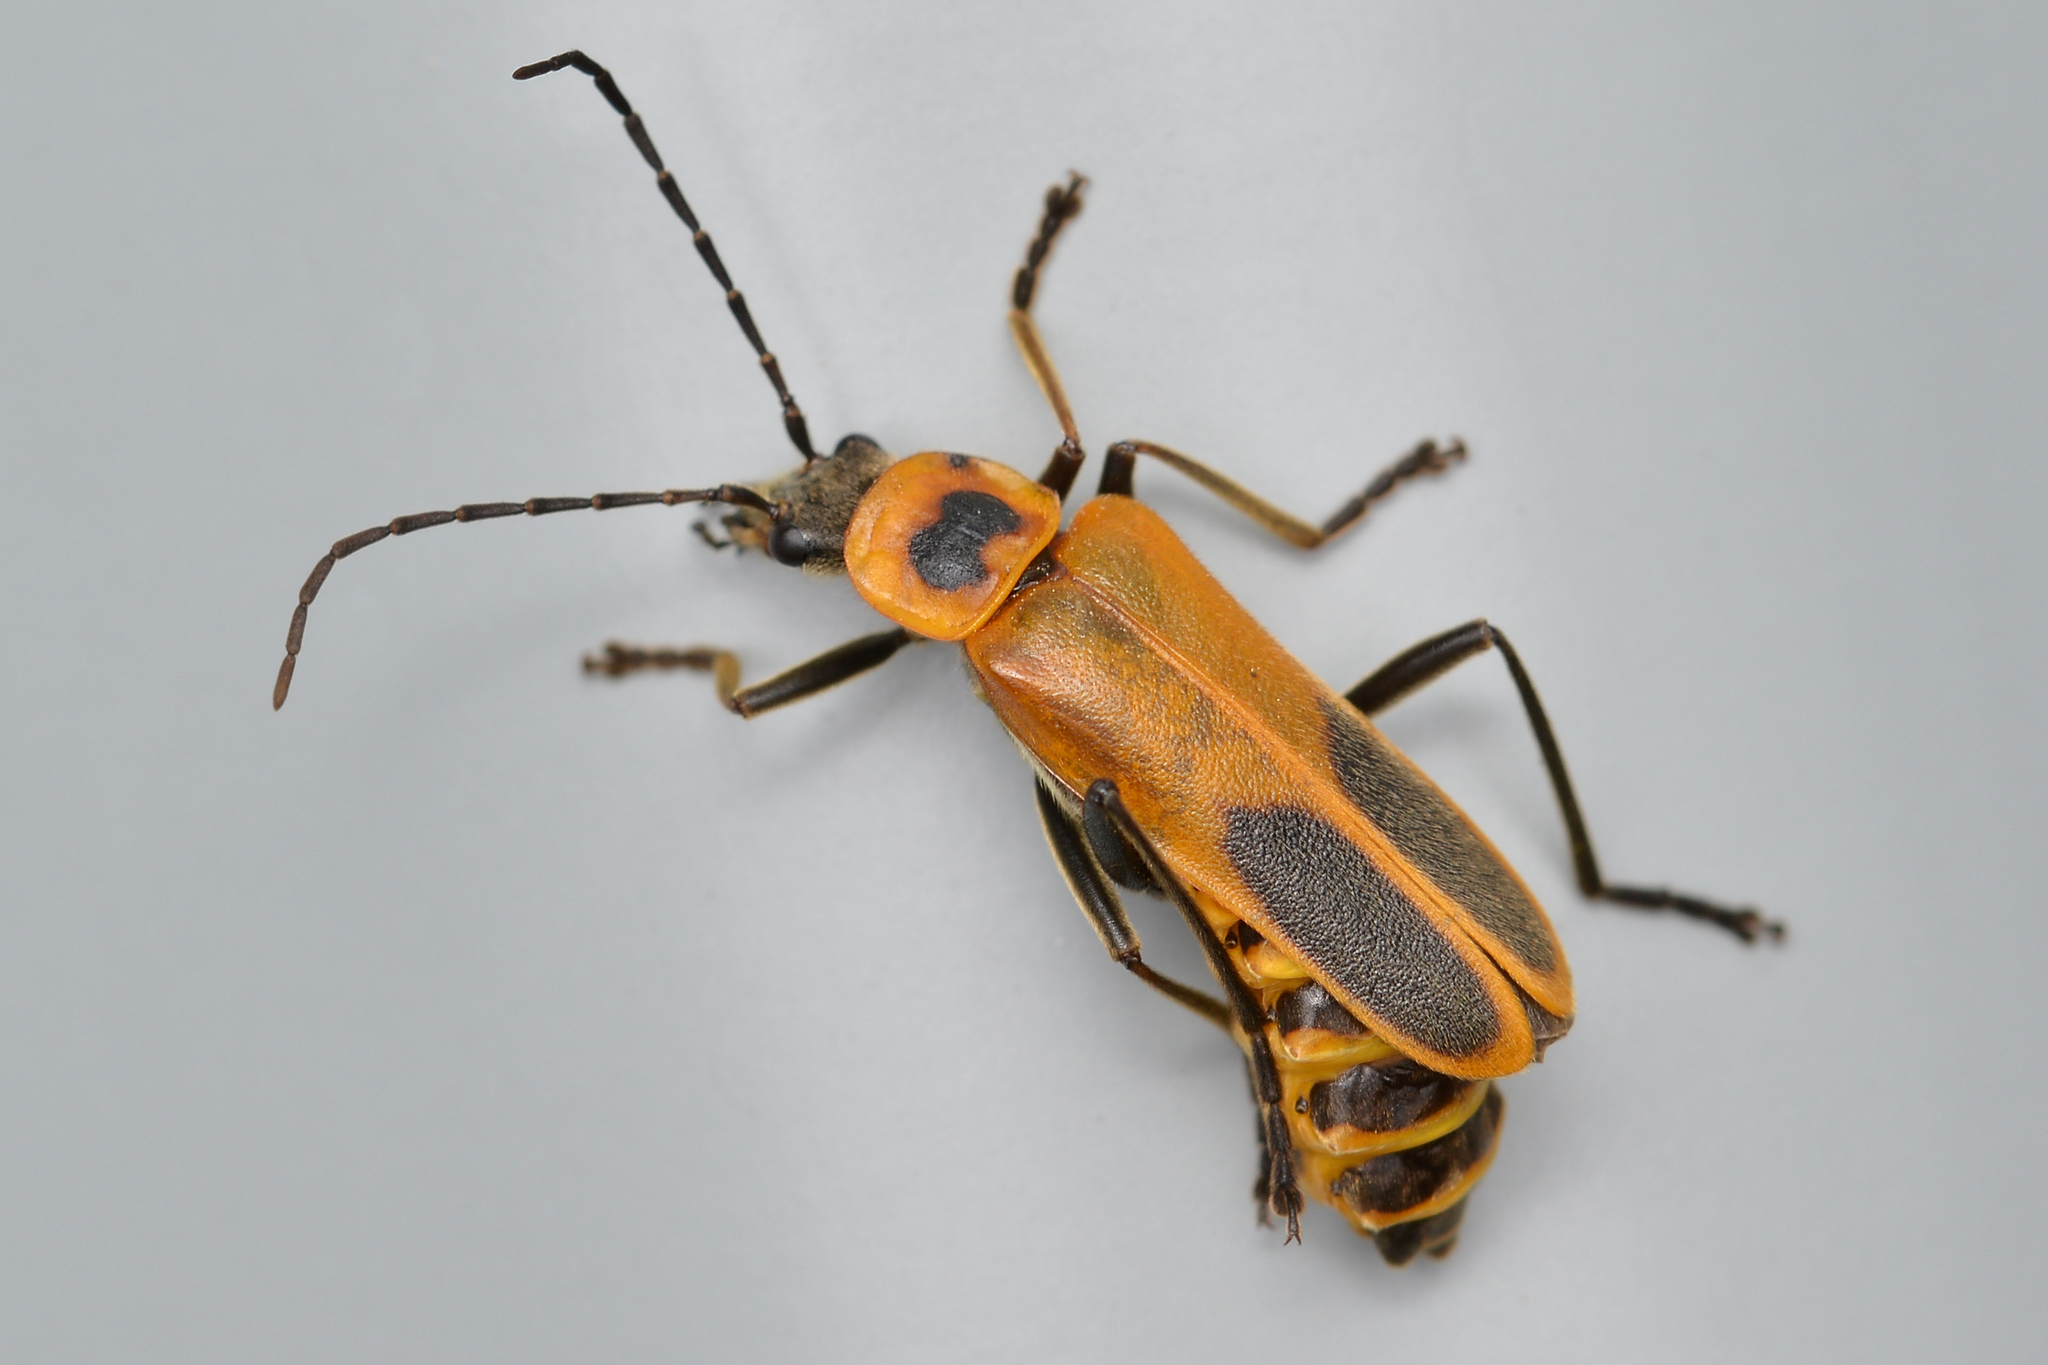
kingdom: Animalia
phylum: Arthropoda
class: Insecta
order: Coleoptera
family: Cantharidae
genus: Chauliognathus
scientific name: Chauliognathus pensylvanicus
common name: Goldenrod soldier beetle
